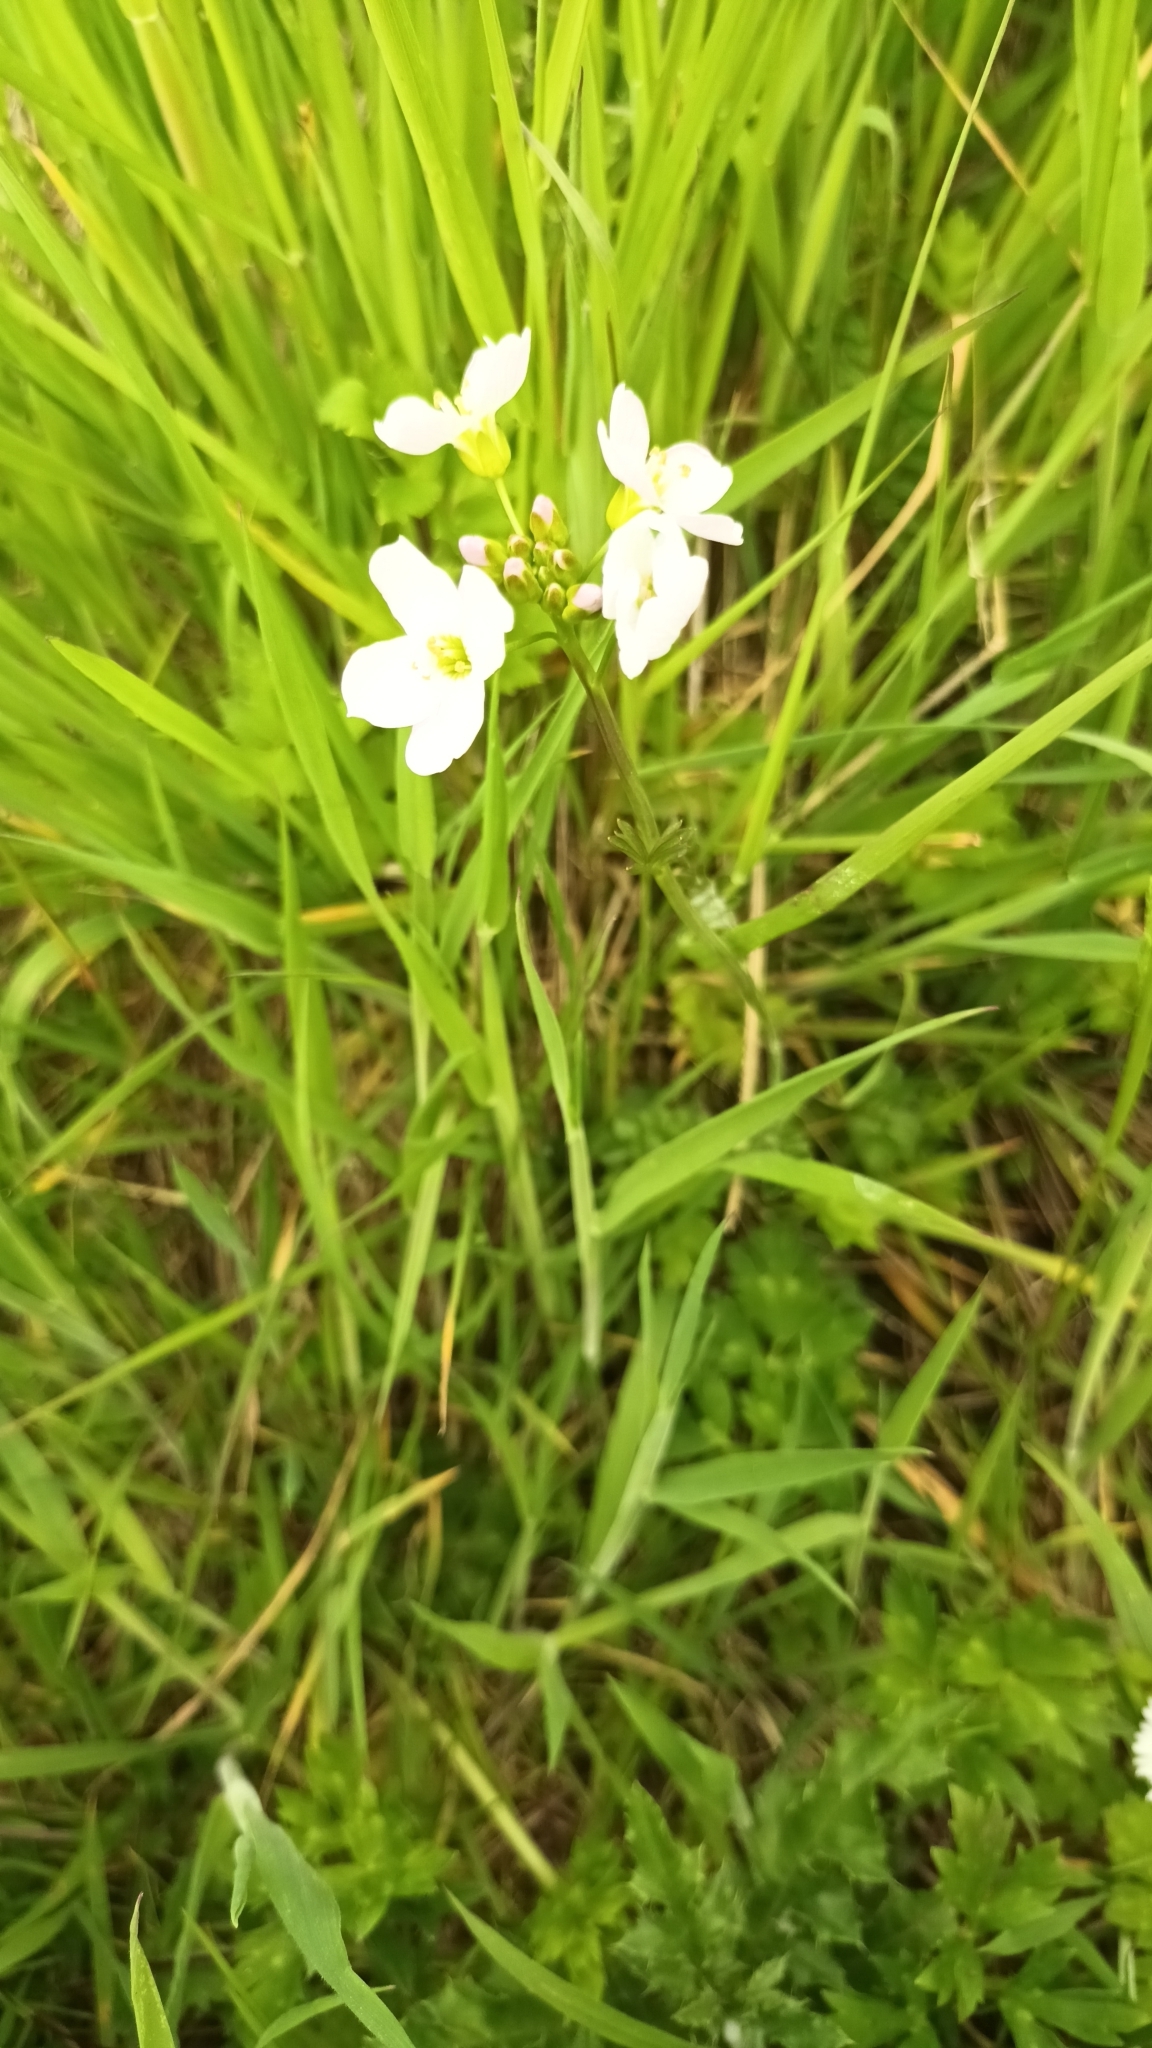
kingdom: Plantae
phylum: Tracheophyta
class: Magnoliopsida
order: Brassicales
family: Brassicaceae
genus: Cardamine
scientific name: Cardamine pratensis
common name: Cuckoo flower
